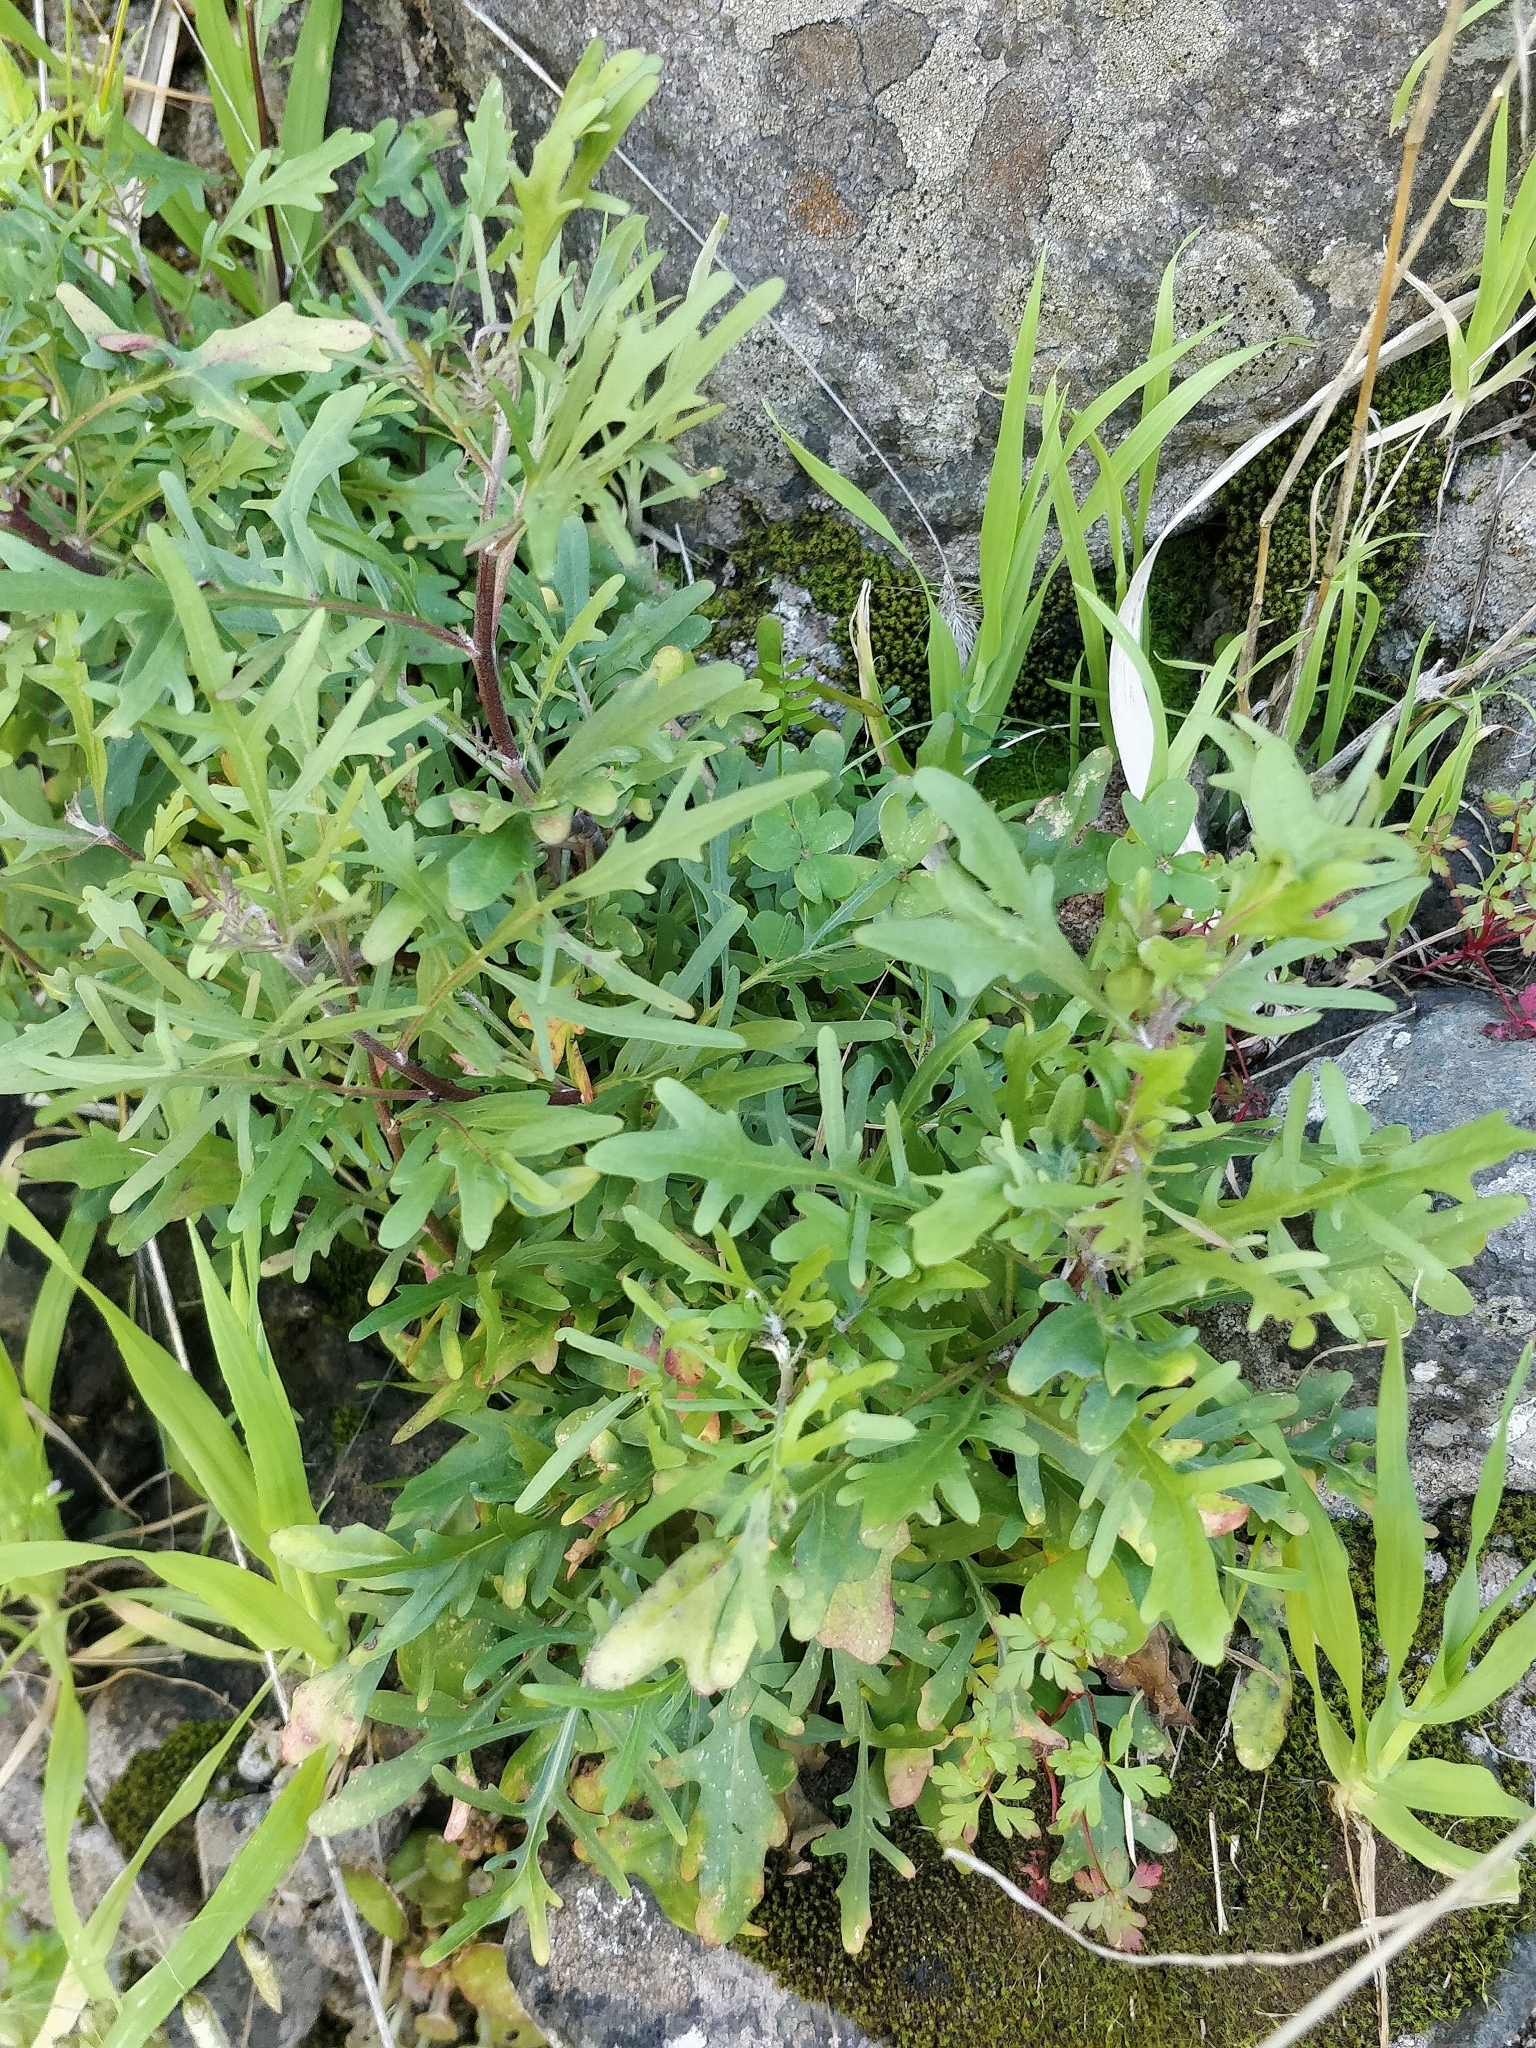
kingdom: Plantae
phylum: Tracheophyta
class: Magnoliopsida
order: Asterales
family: Asteraceae
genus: Tolpis
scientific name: Tolpis succulenta
